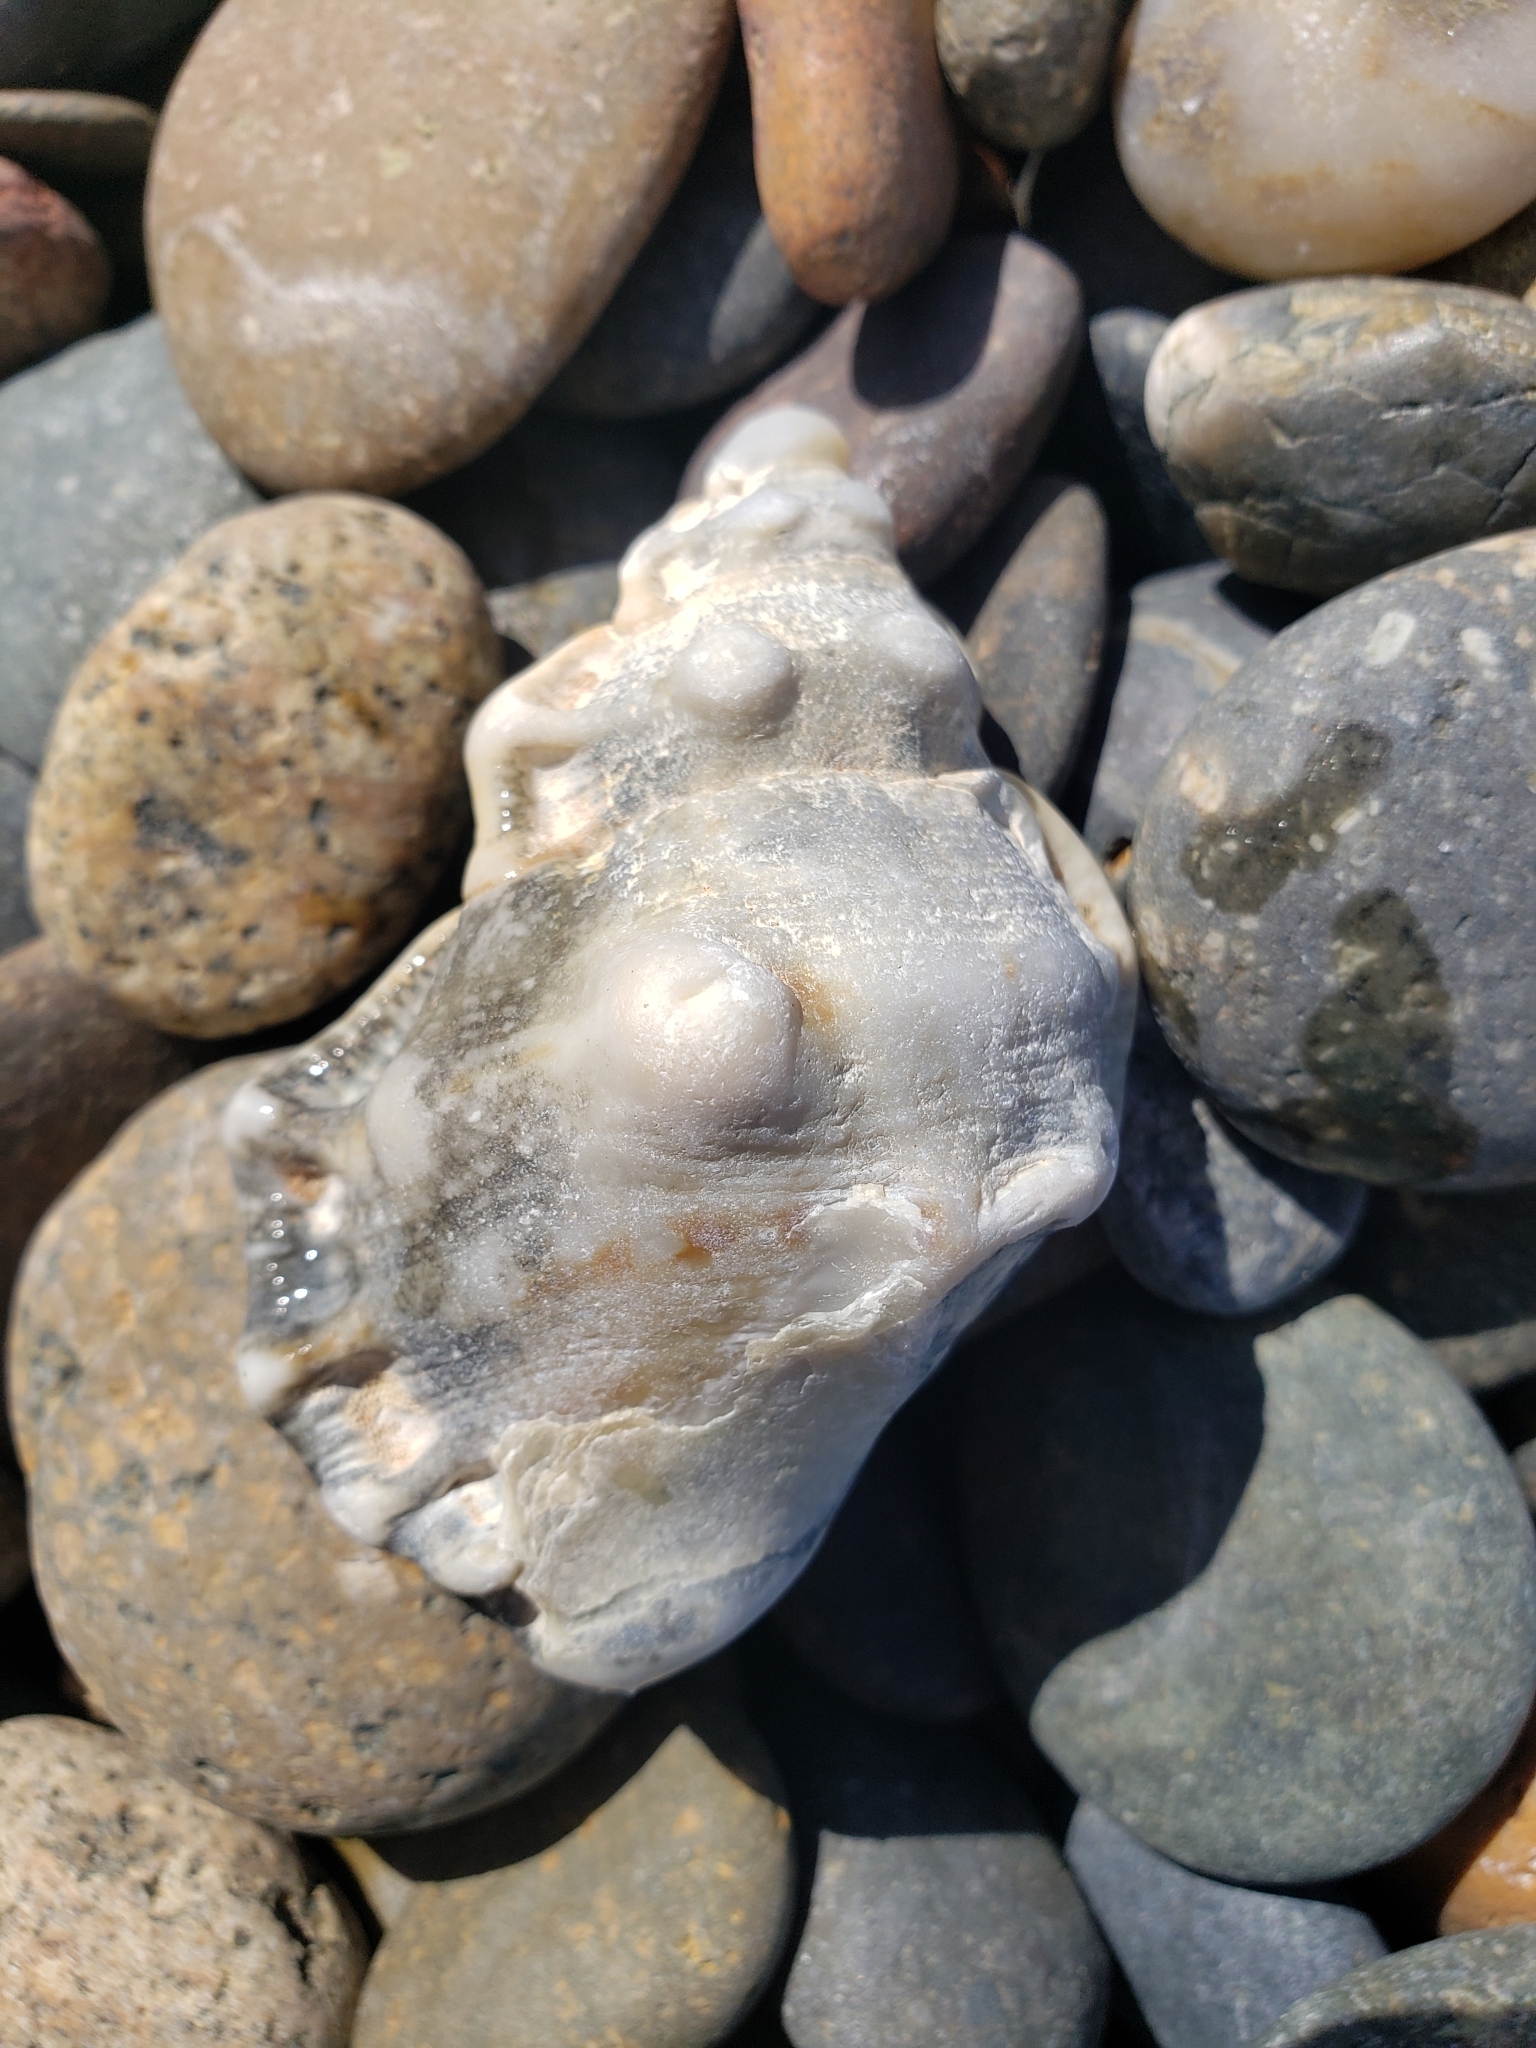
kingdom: Animalia
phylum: Mollusca
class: Gastropoda
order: Littorinimorpha
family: Bursidae
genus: Crossata
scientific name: Crossata californica
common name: California frogsnail
